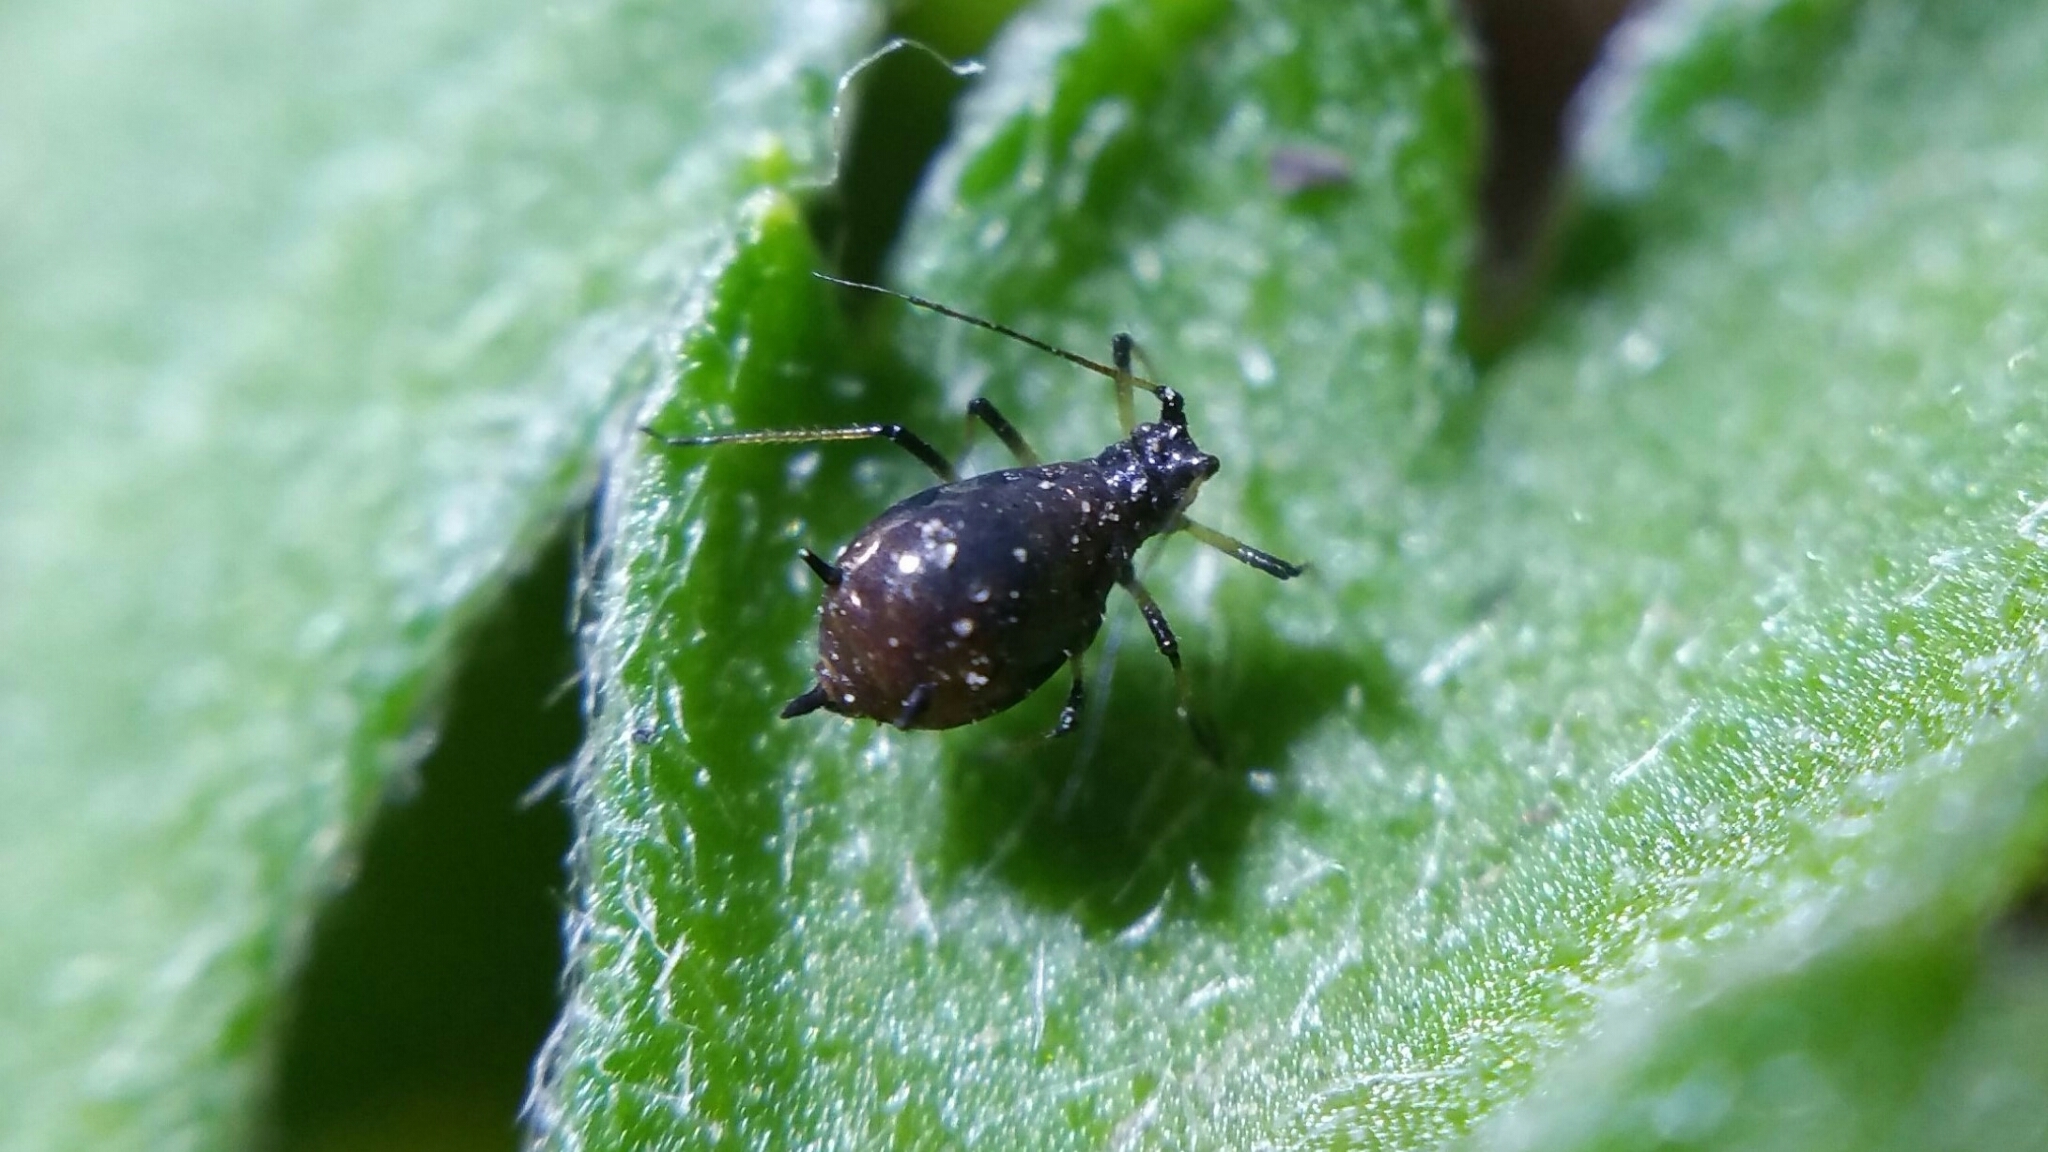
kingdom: Animalia
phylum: Arthropoda
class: Insecta
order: Hemiptera
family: Aphididae
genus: Macrosiphoniella
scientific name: Macrosiphoniella sanborni
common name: Chrysanthemum aphid
